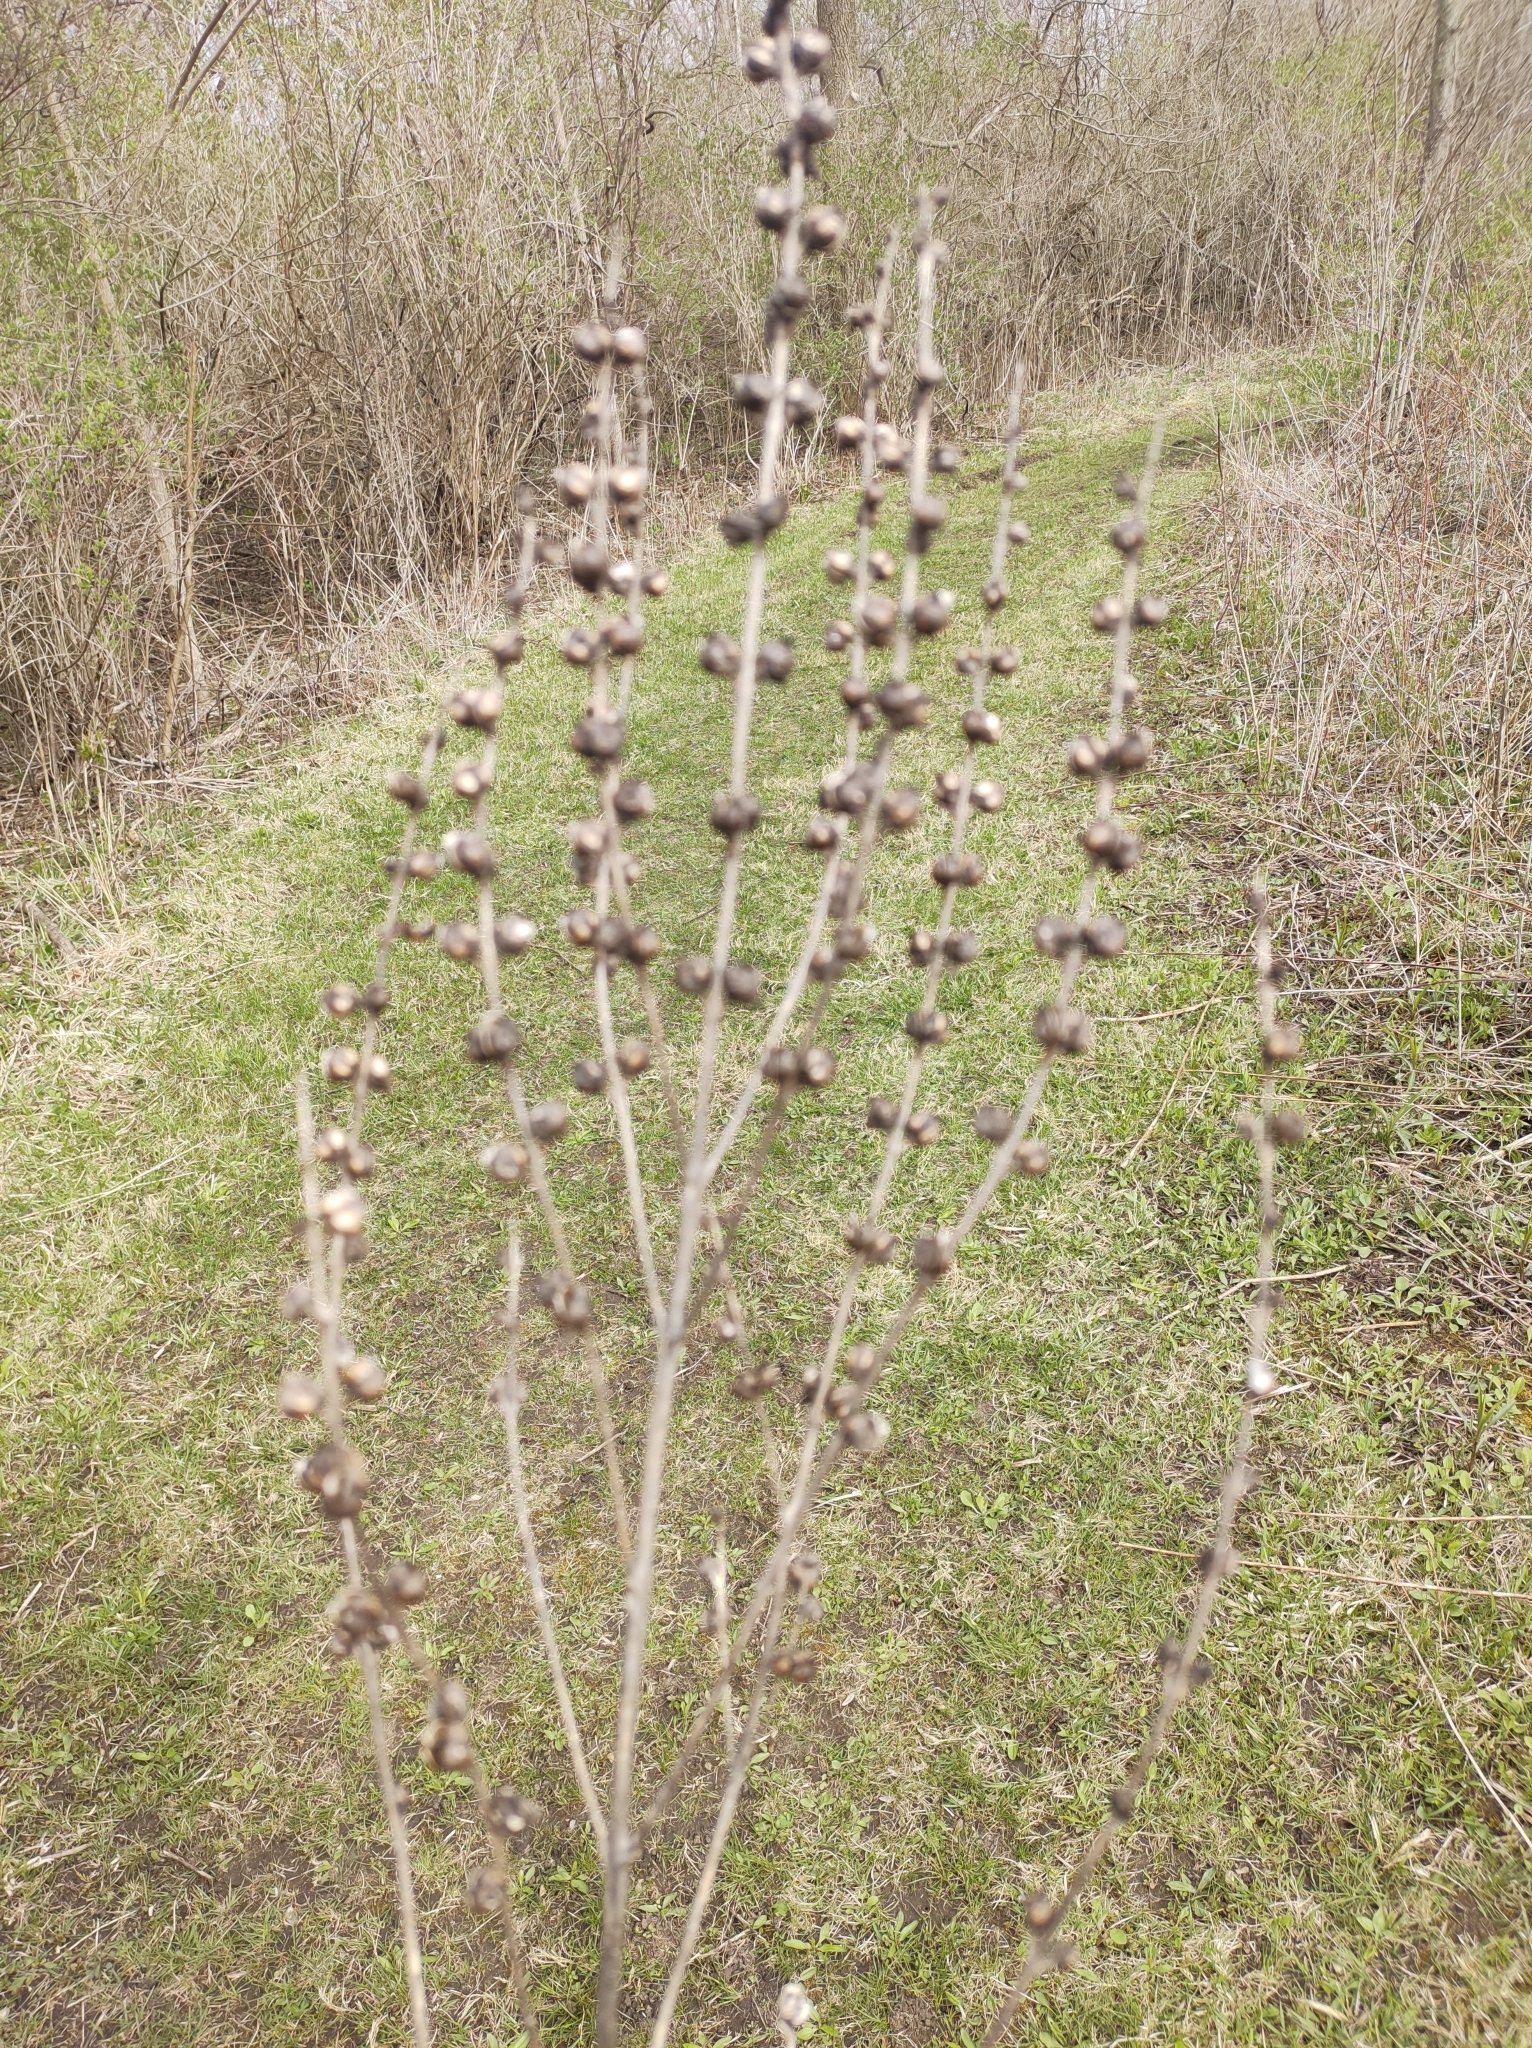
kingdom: Plantae
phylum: Tracheophyta
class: Magnoliopsida
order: Lamiales
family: Orobanchaceae
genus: Dasistoma
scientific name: Dasistoma macrophyllum
